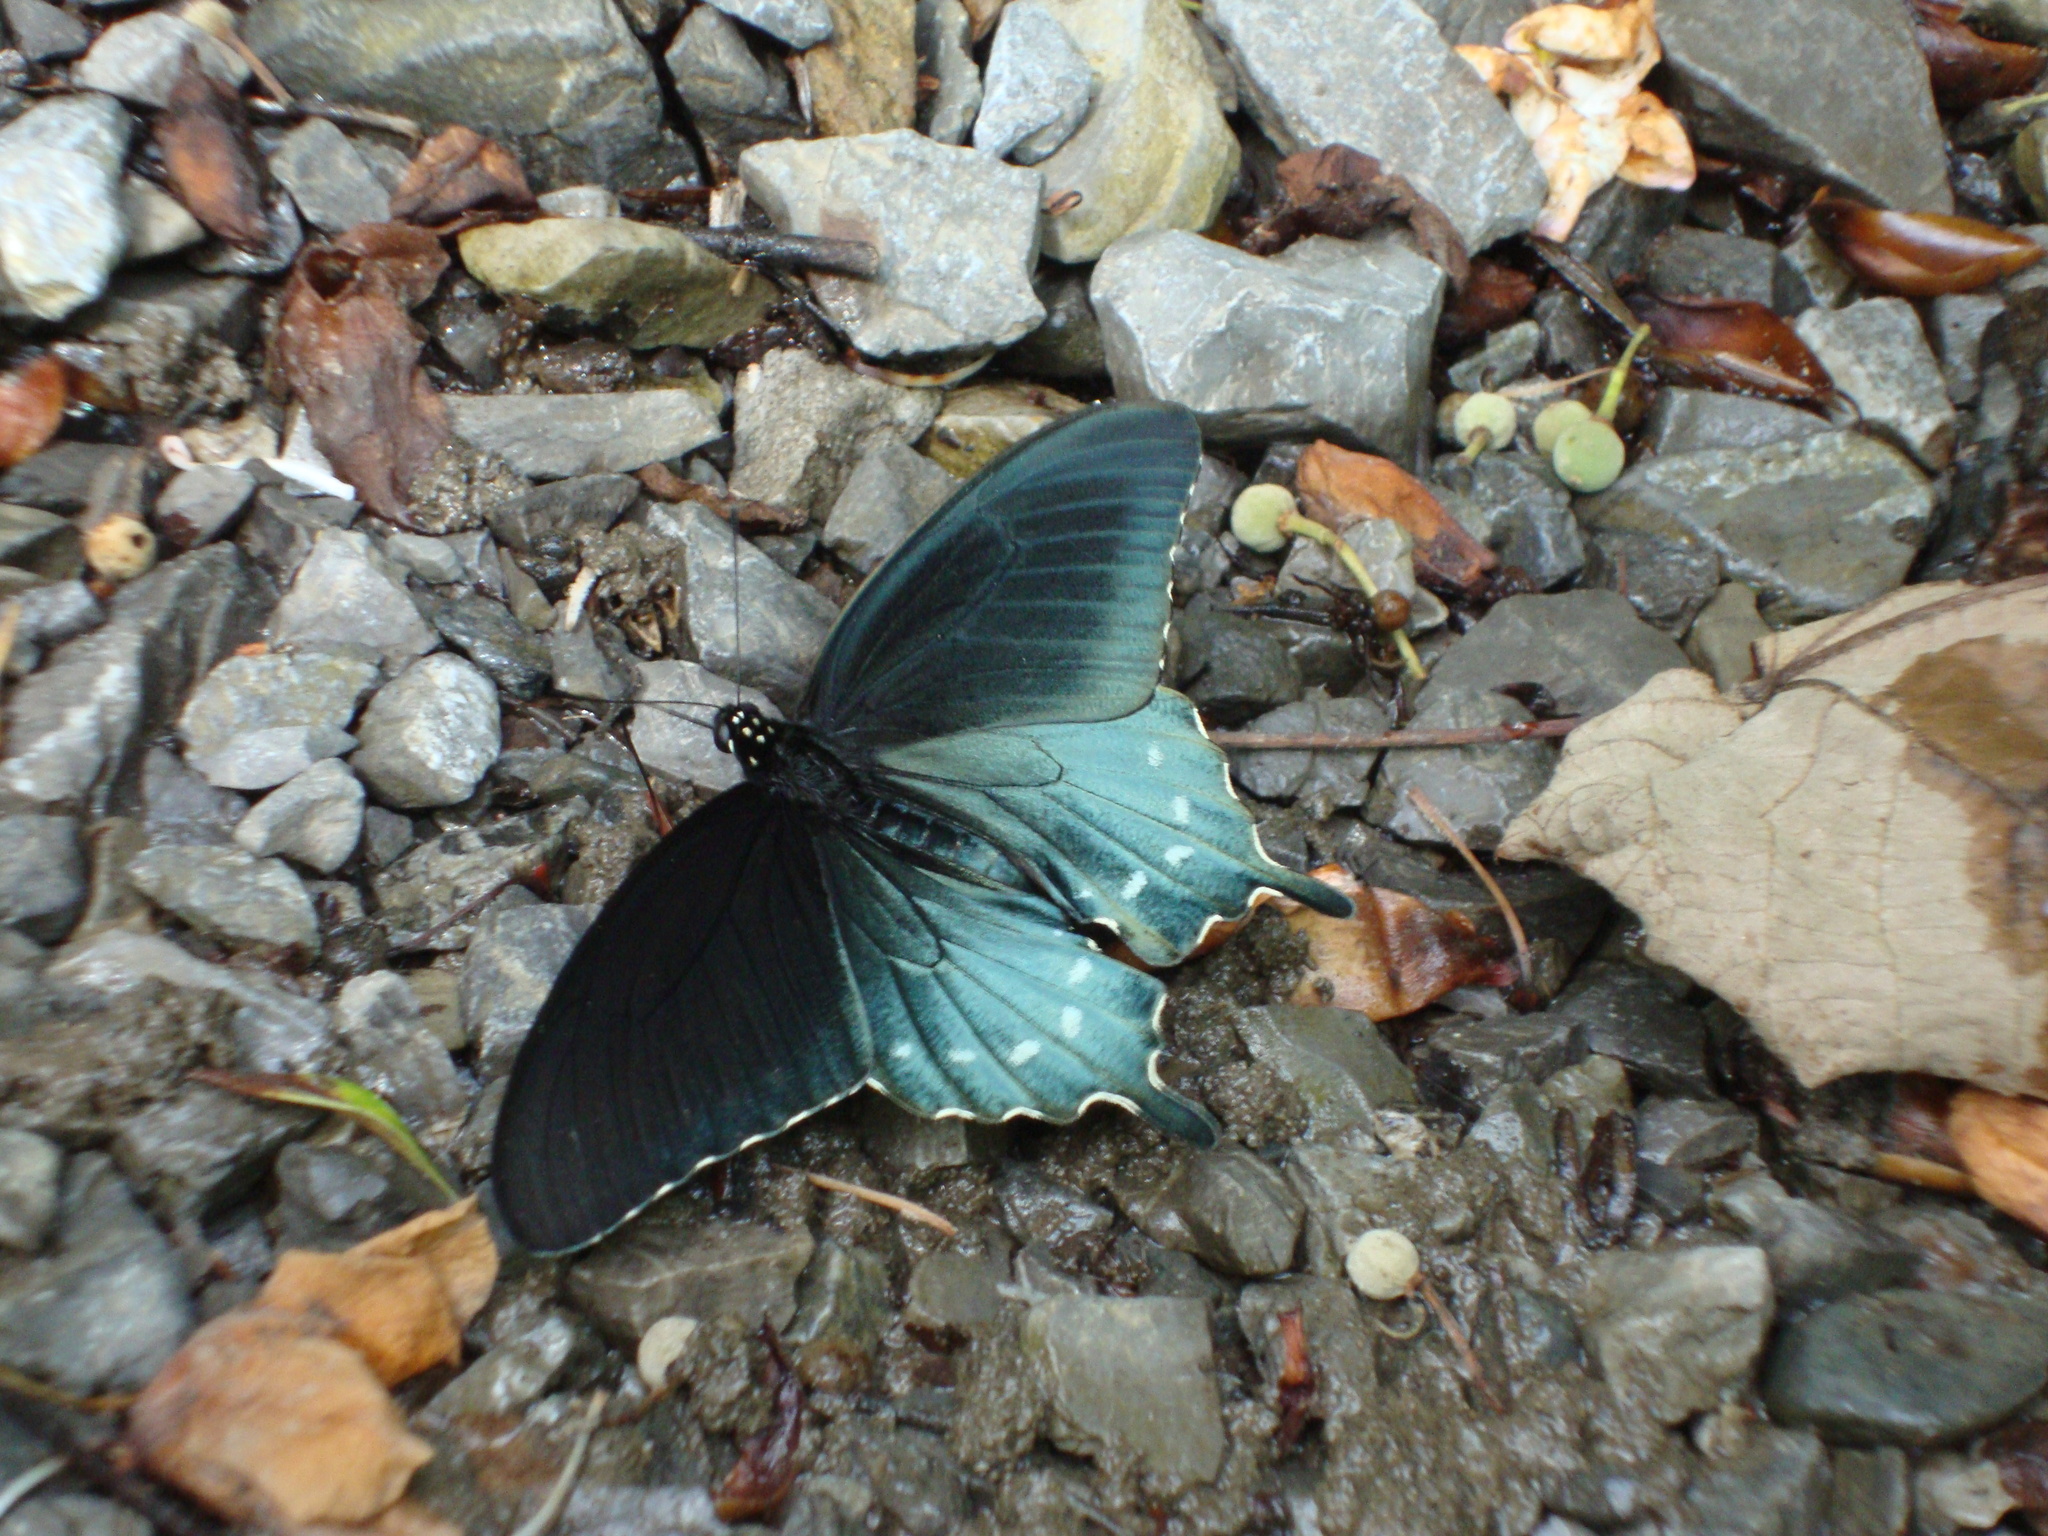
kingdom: Animalia
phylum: Arthropoda
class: Insecta
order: Lepidoptera
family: Papilionidae
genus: Battus
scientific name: Battus philenor
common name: Pipevine swallowtail
